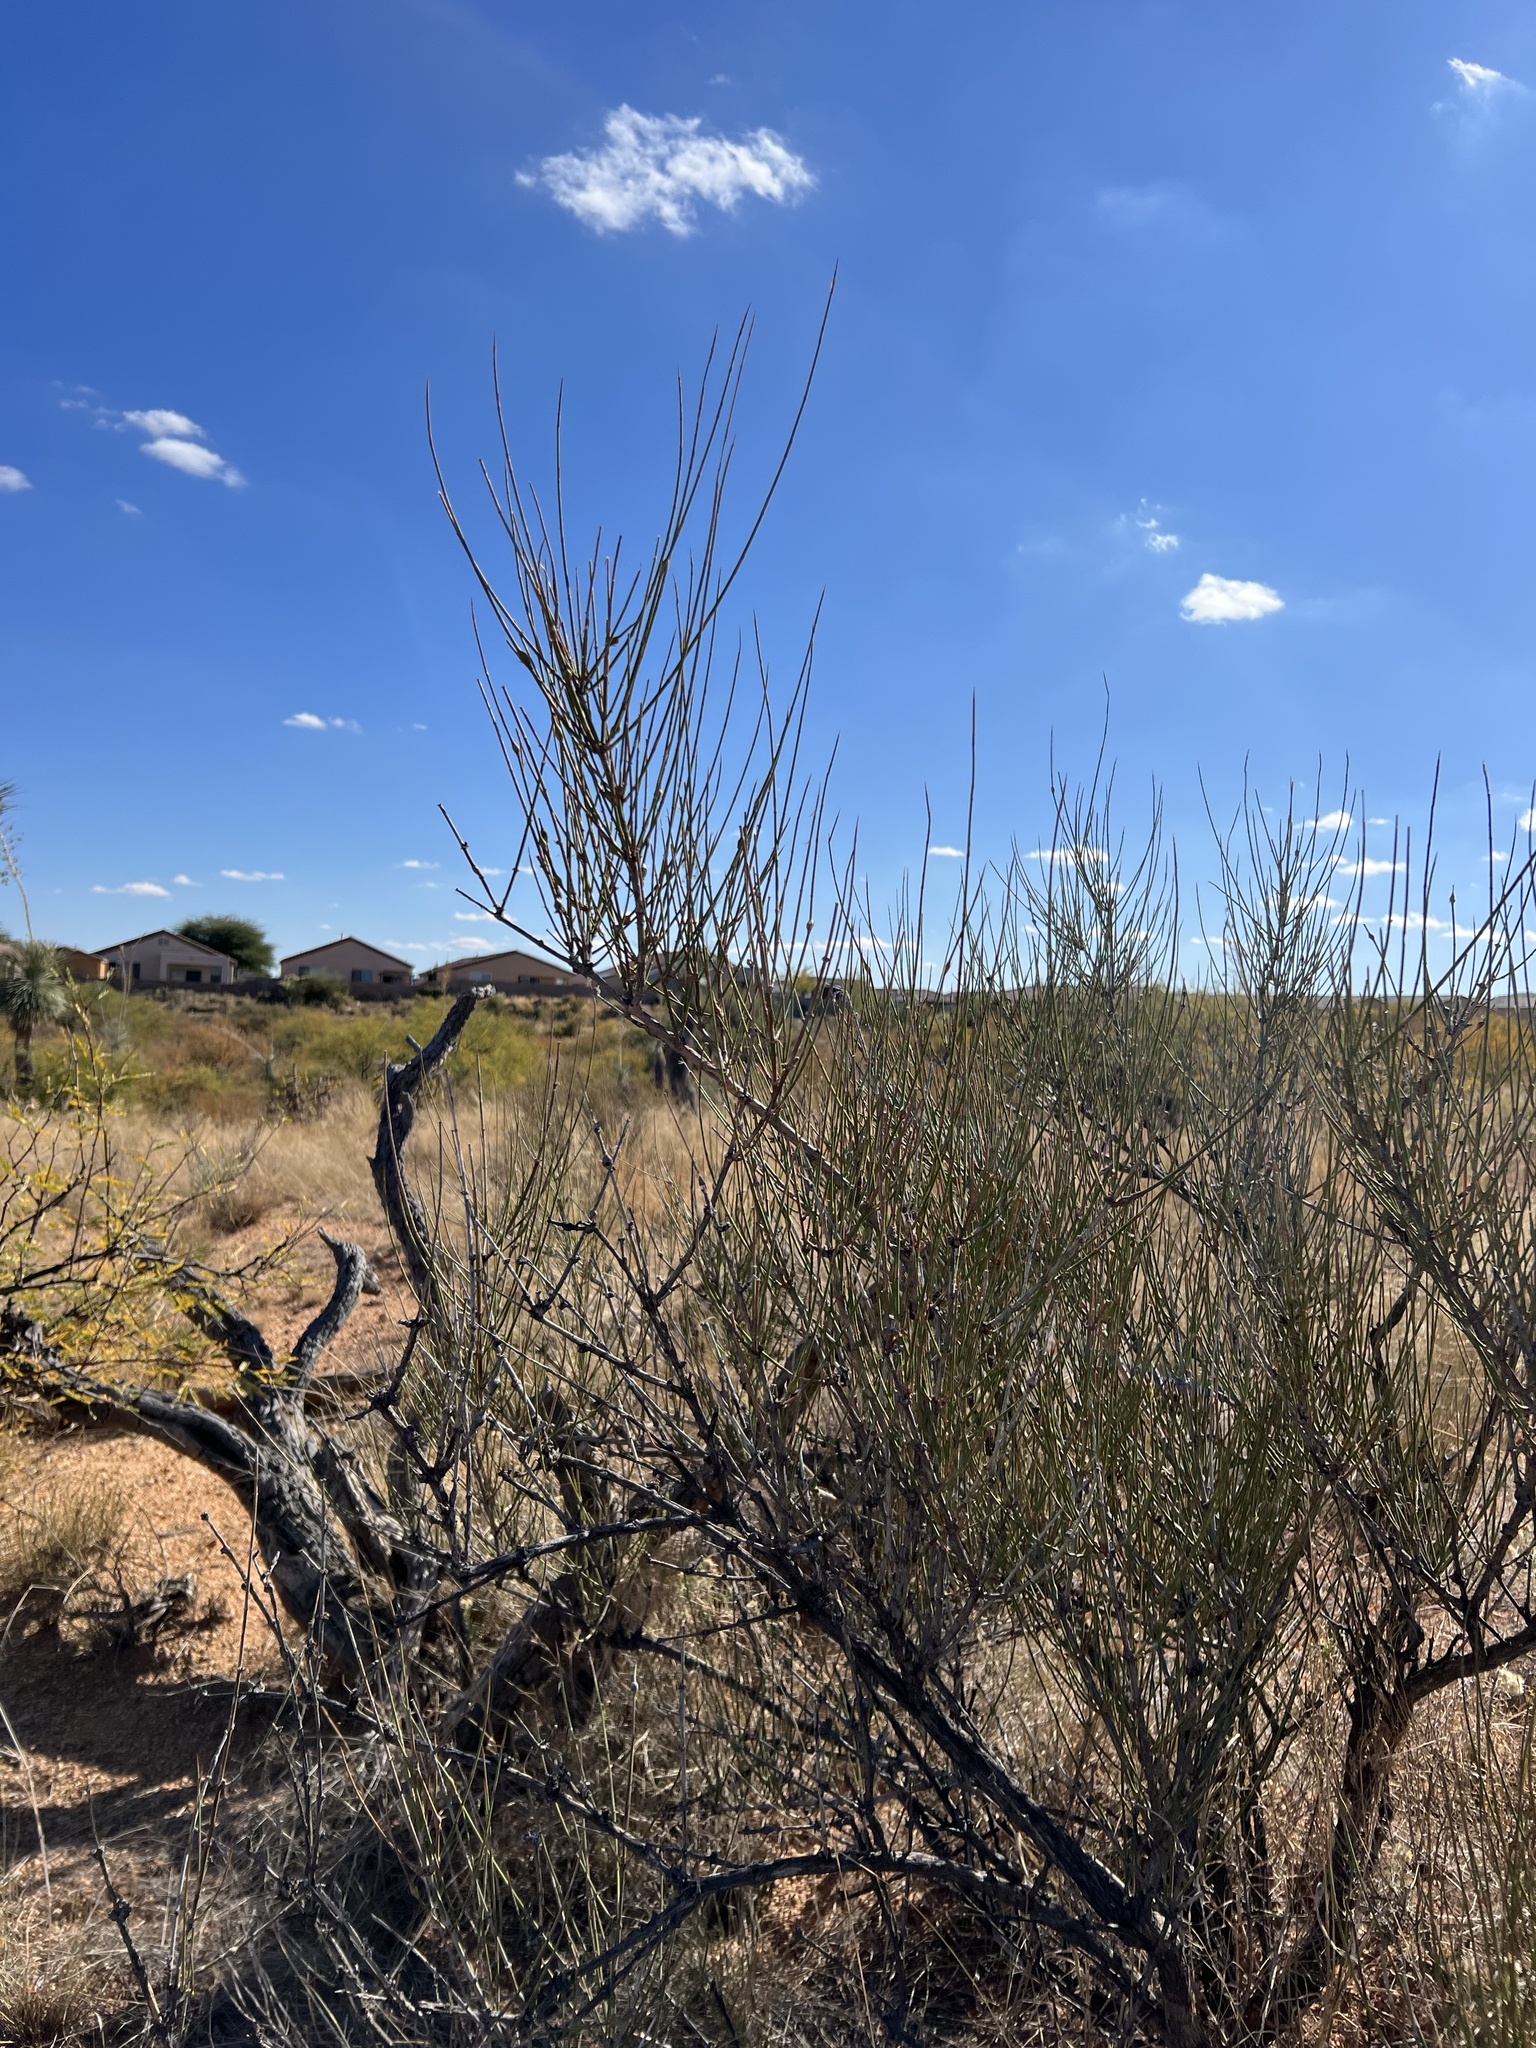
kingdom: Plantae
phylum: Tracheophyta
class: Gnetopsida
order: Ephedrales
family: Ephedraceae
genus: Ephedra
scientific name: Ephedra trifurca
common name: Mexican-tea
